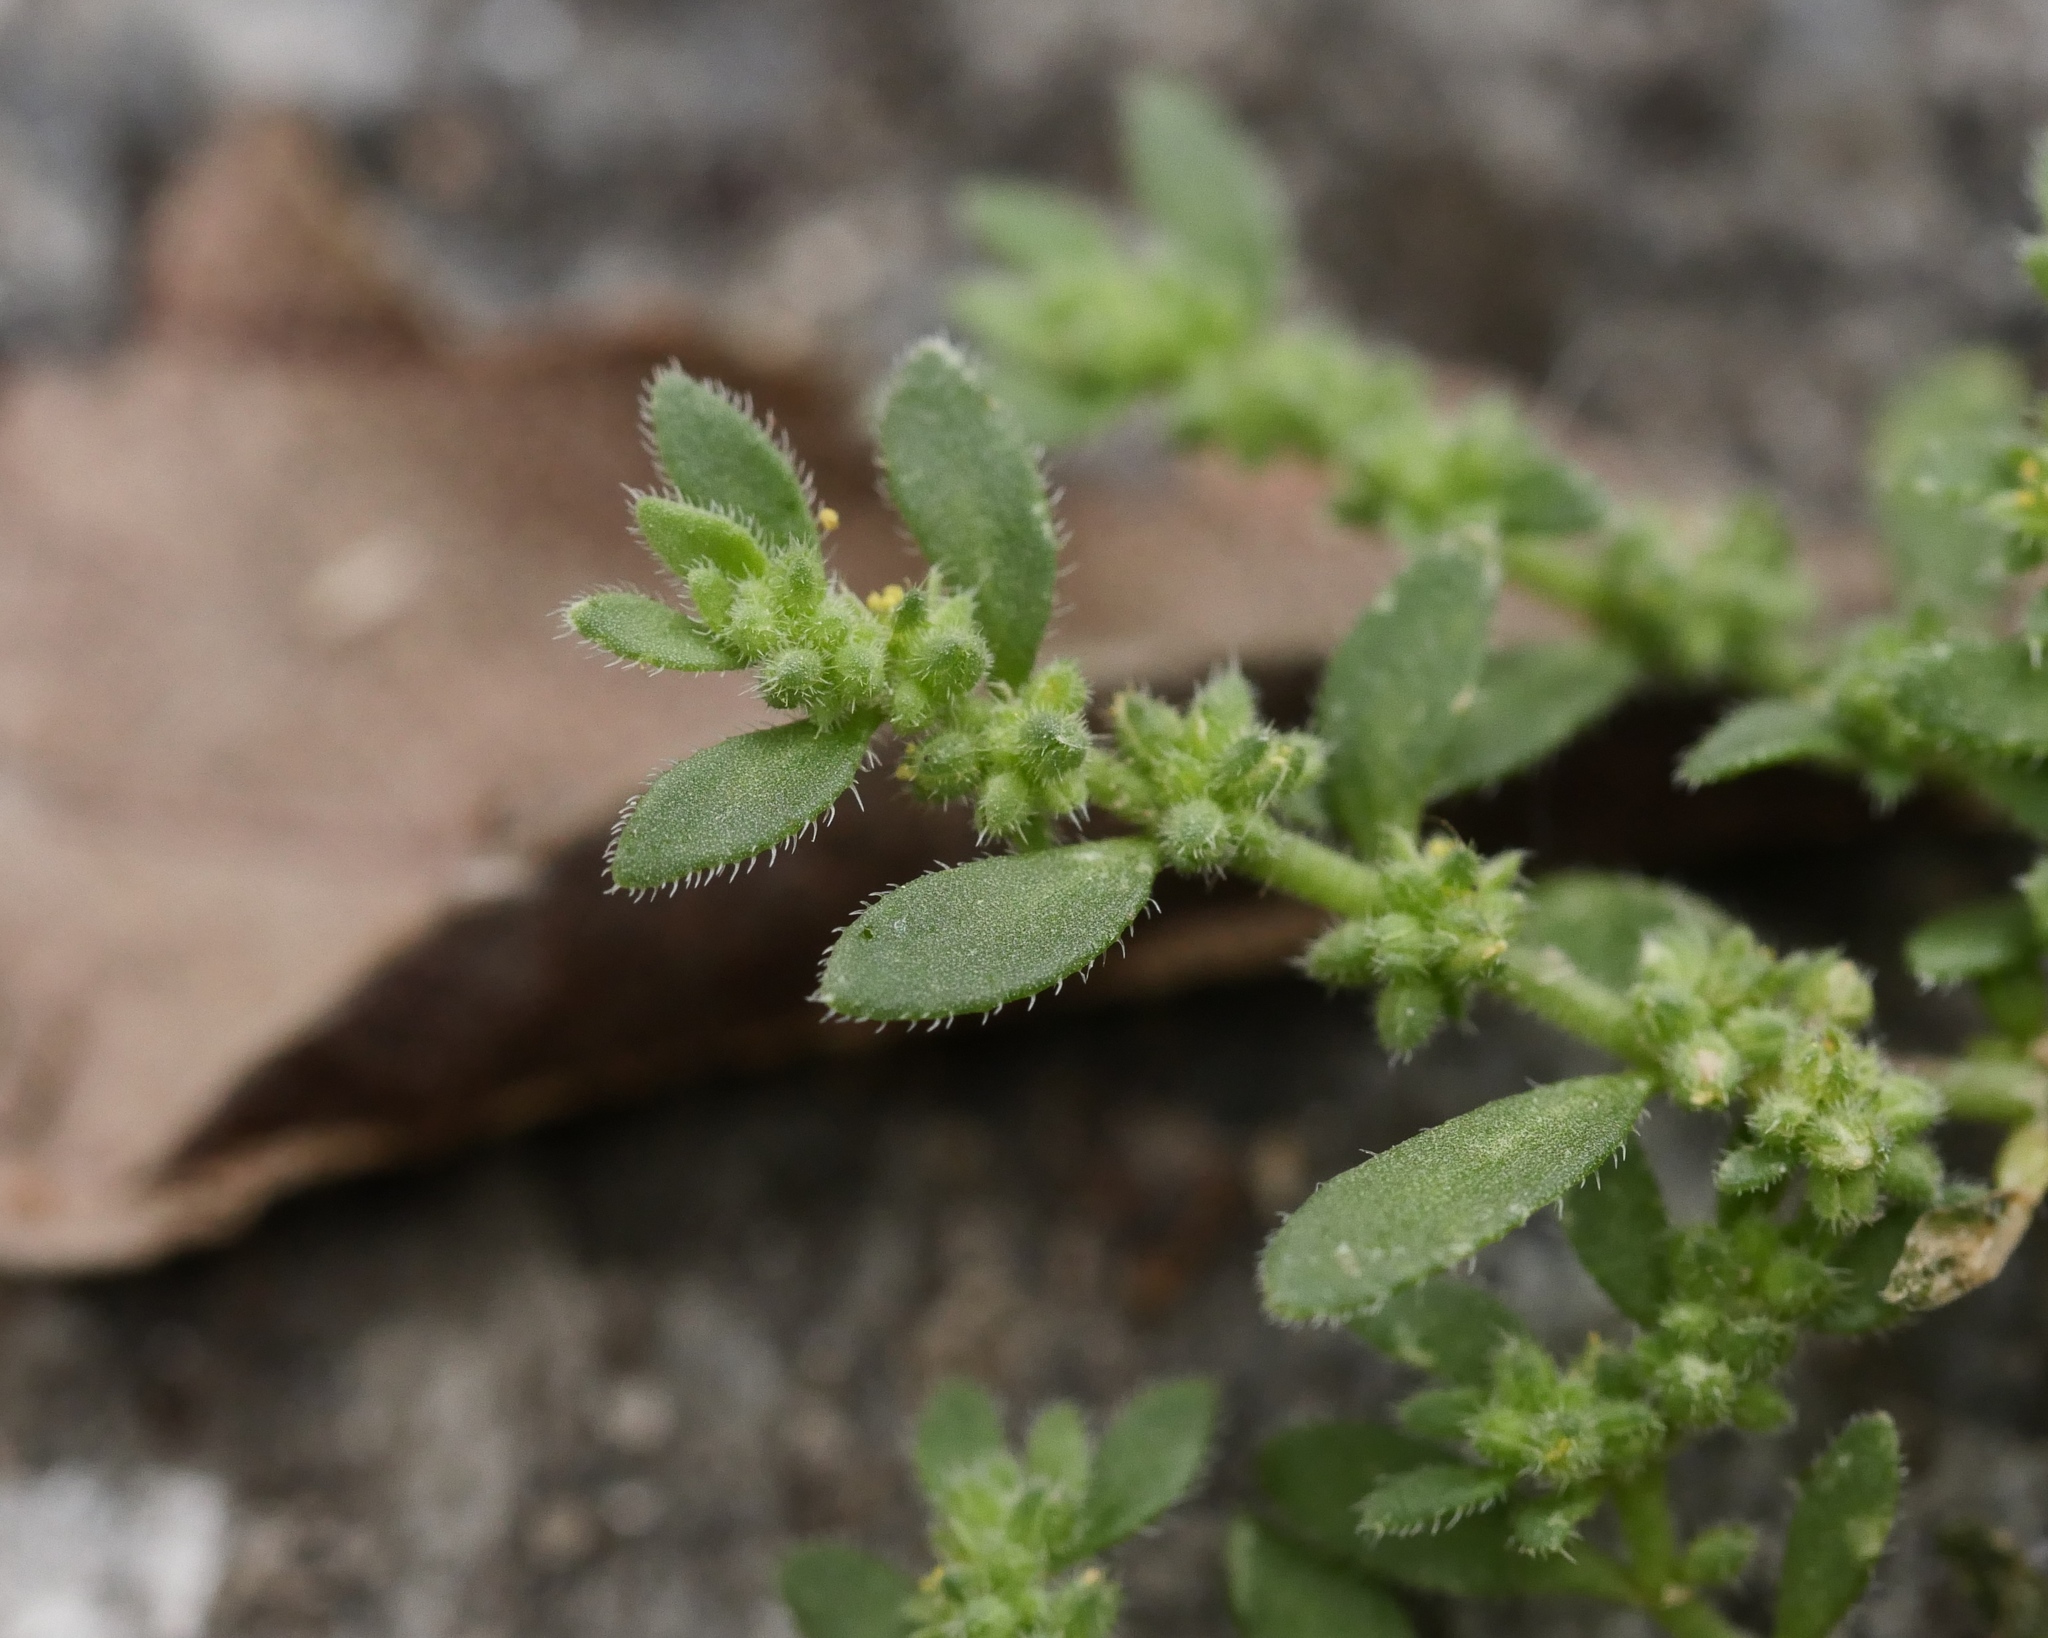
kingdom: Plantae
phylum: Tracheophyta
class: Magnoliopsida
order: Caryophyllales
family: Caryophyllaceae
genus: Herniaria
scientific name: Herniaria hirsuta
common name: Hairy rupturewort
